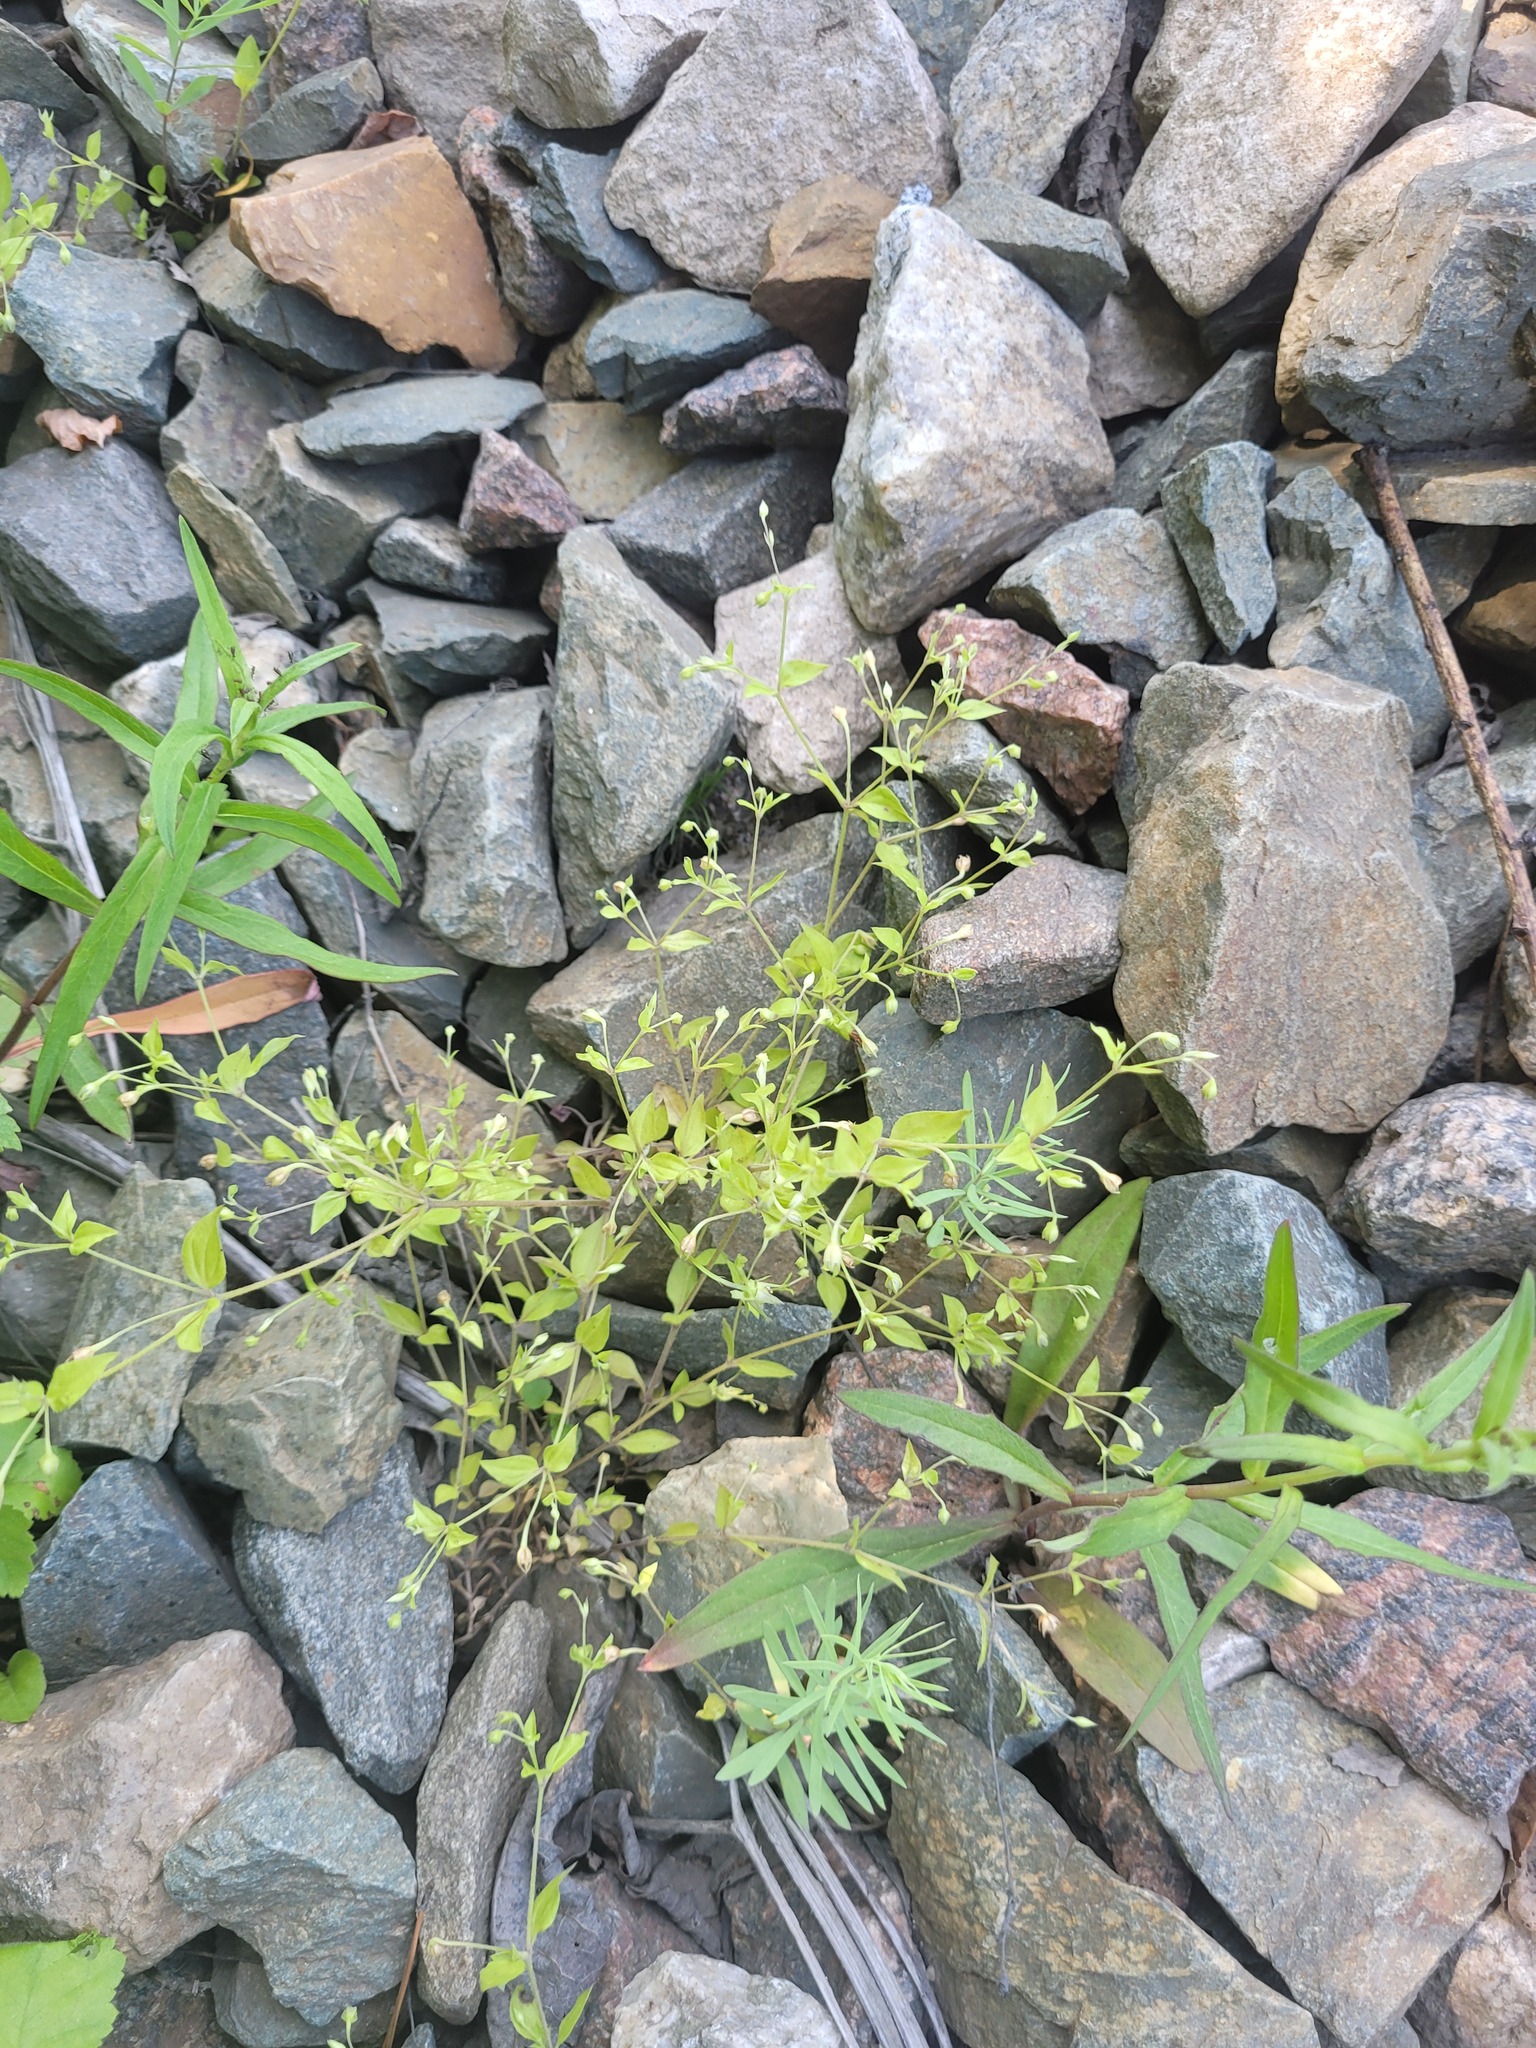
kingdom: Plantae
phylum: Tracheophyta
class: Magnoliopsida
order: Caryophyllales
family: Caryophyllaceae
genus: Moehringia
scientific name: Moehringia trinervia
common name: Three-nerved sandwort
